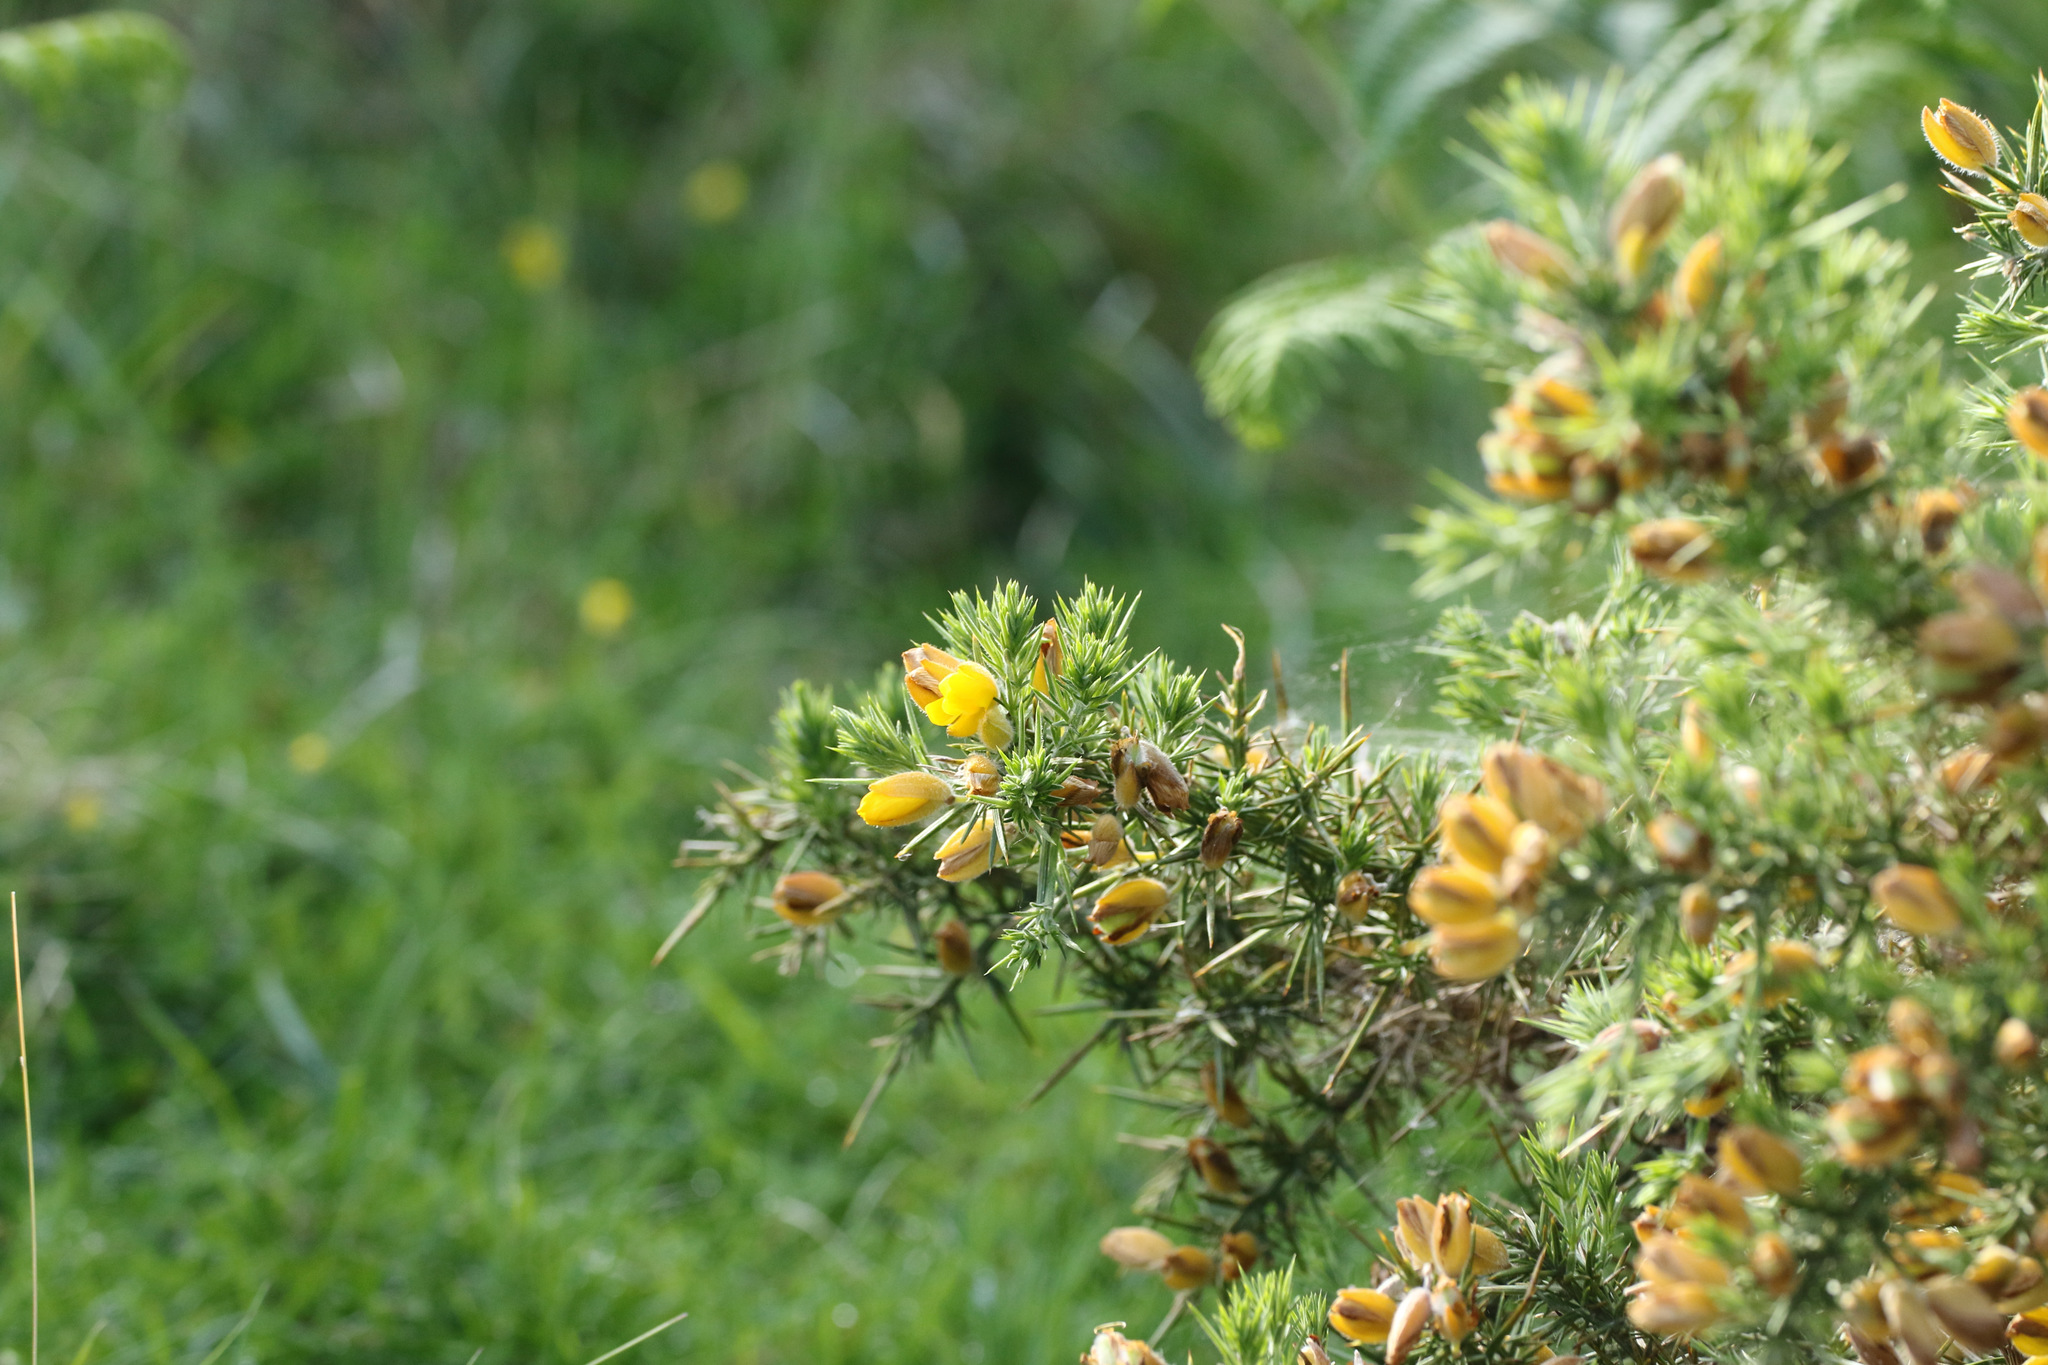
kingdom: Plantae
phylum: Tracheophyta
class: Magnoliopsida
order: Fabales
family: Fabaceae
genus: Ulex
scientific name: Ulex europaeus
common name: Common gorse
